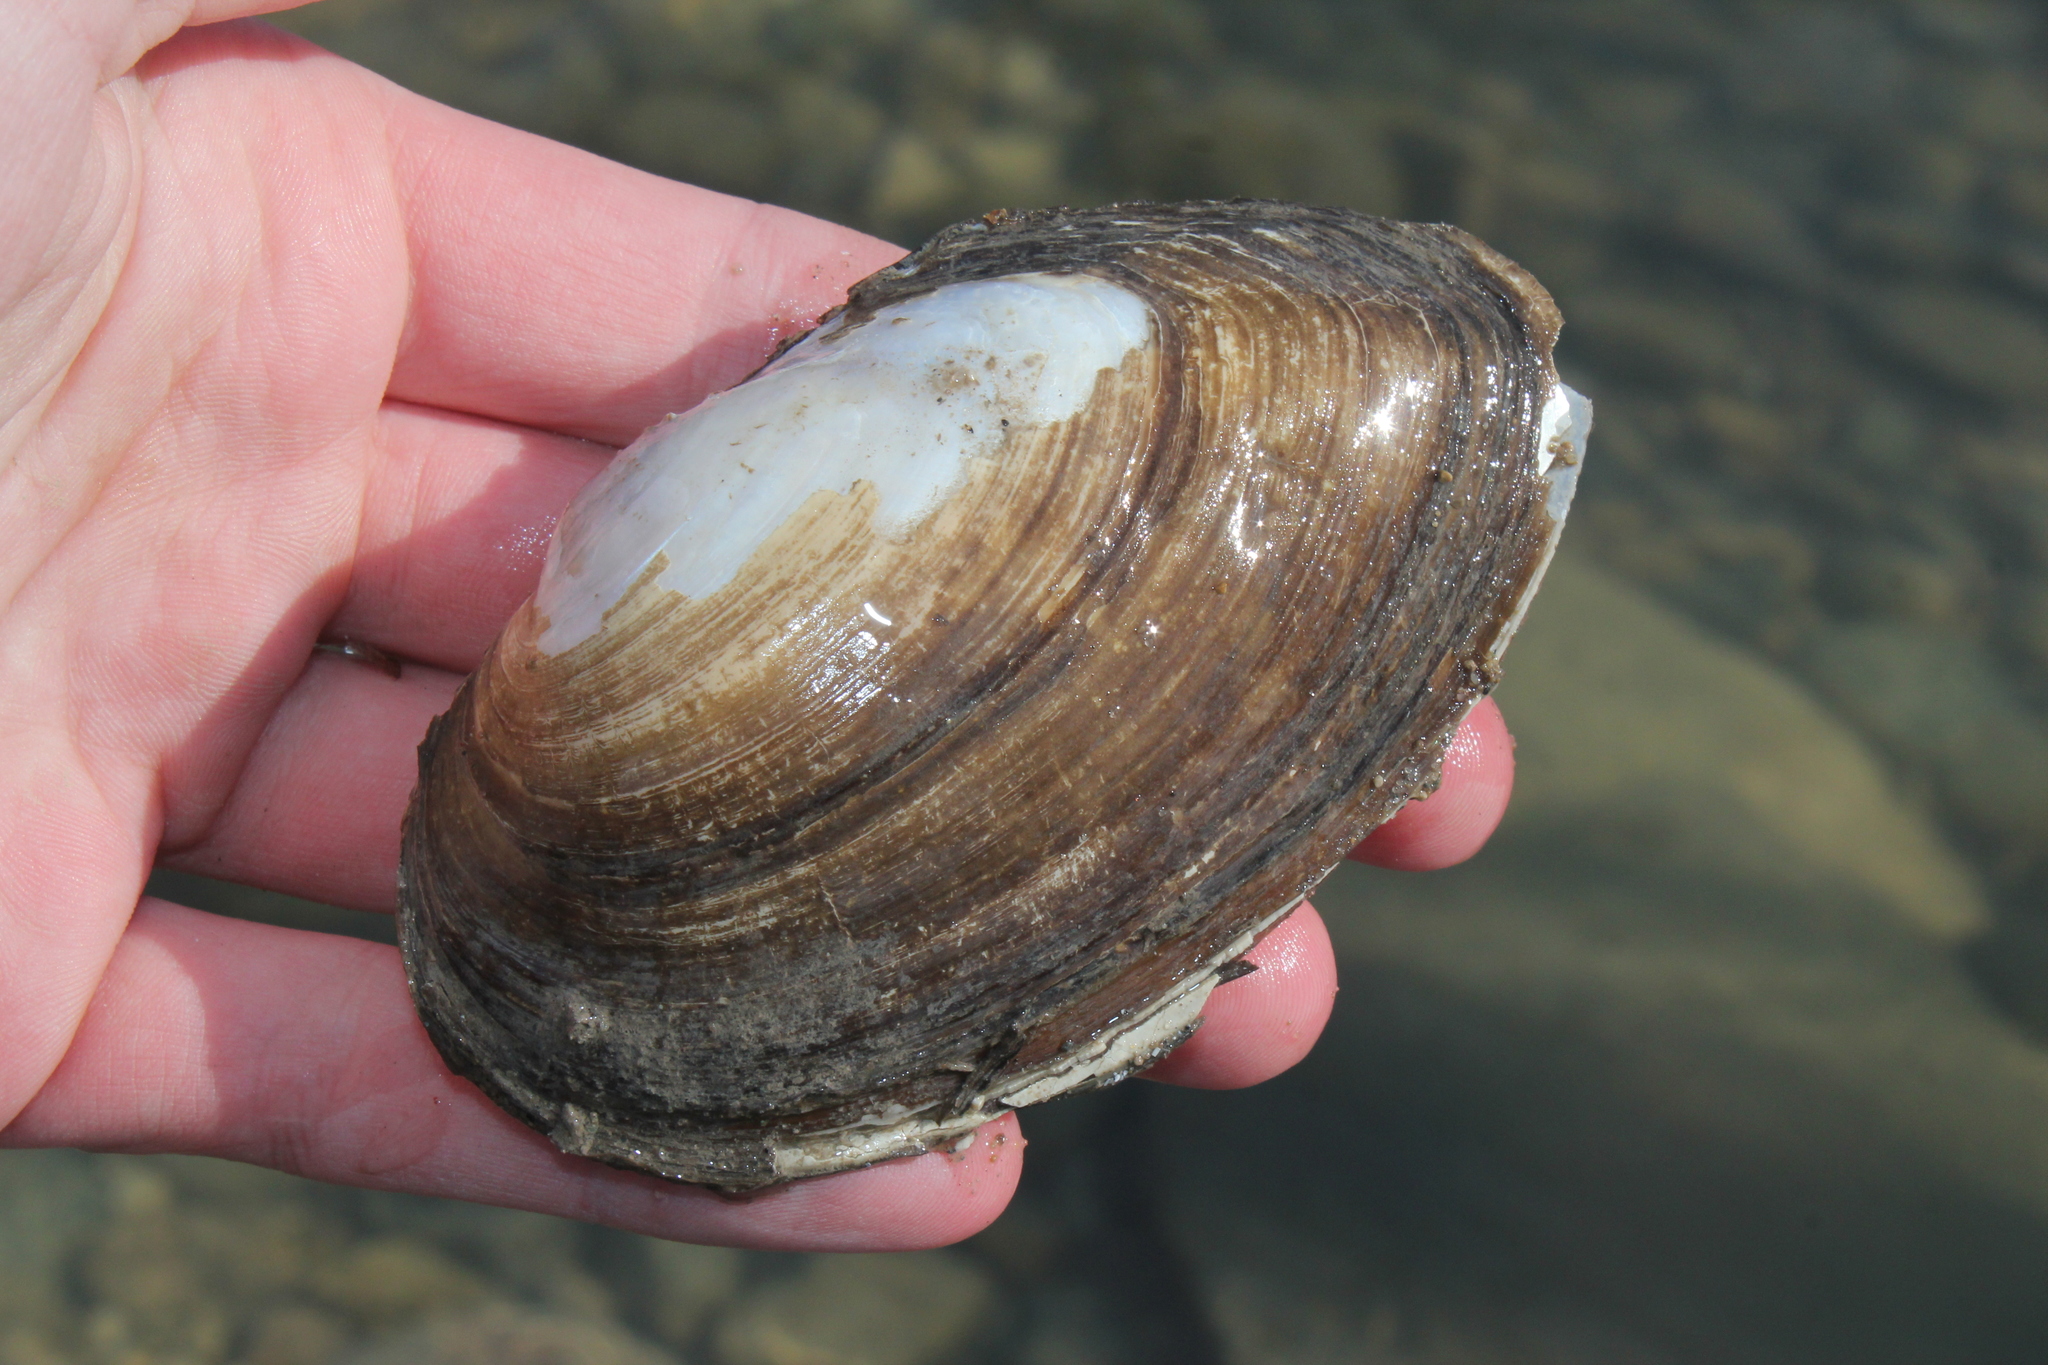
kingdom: Animalia
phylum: Mollusca
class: Bivalvia
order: Unionida
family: Unionidae
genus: Pyganodon
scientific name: Pyganodon grandis
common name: Giant floater
